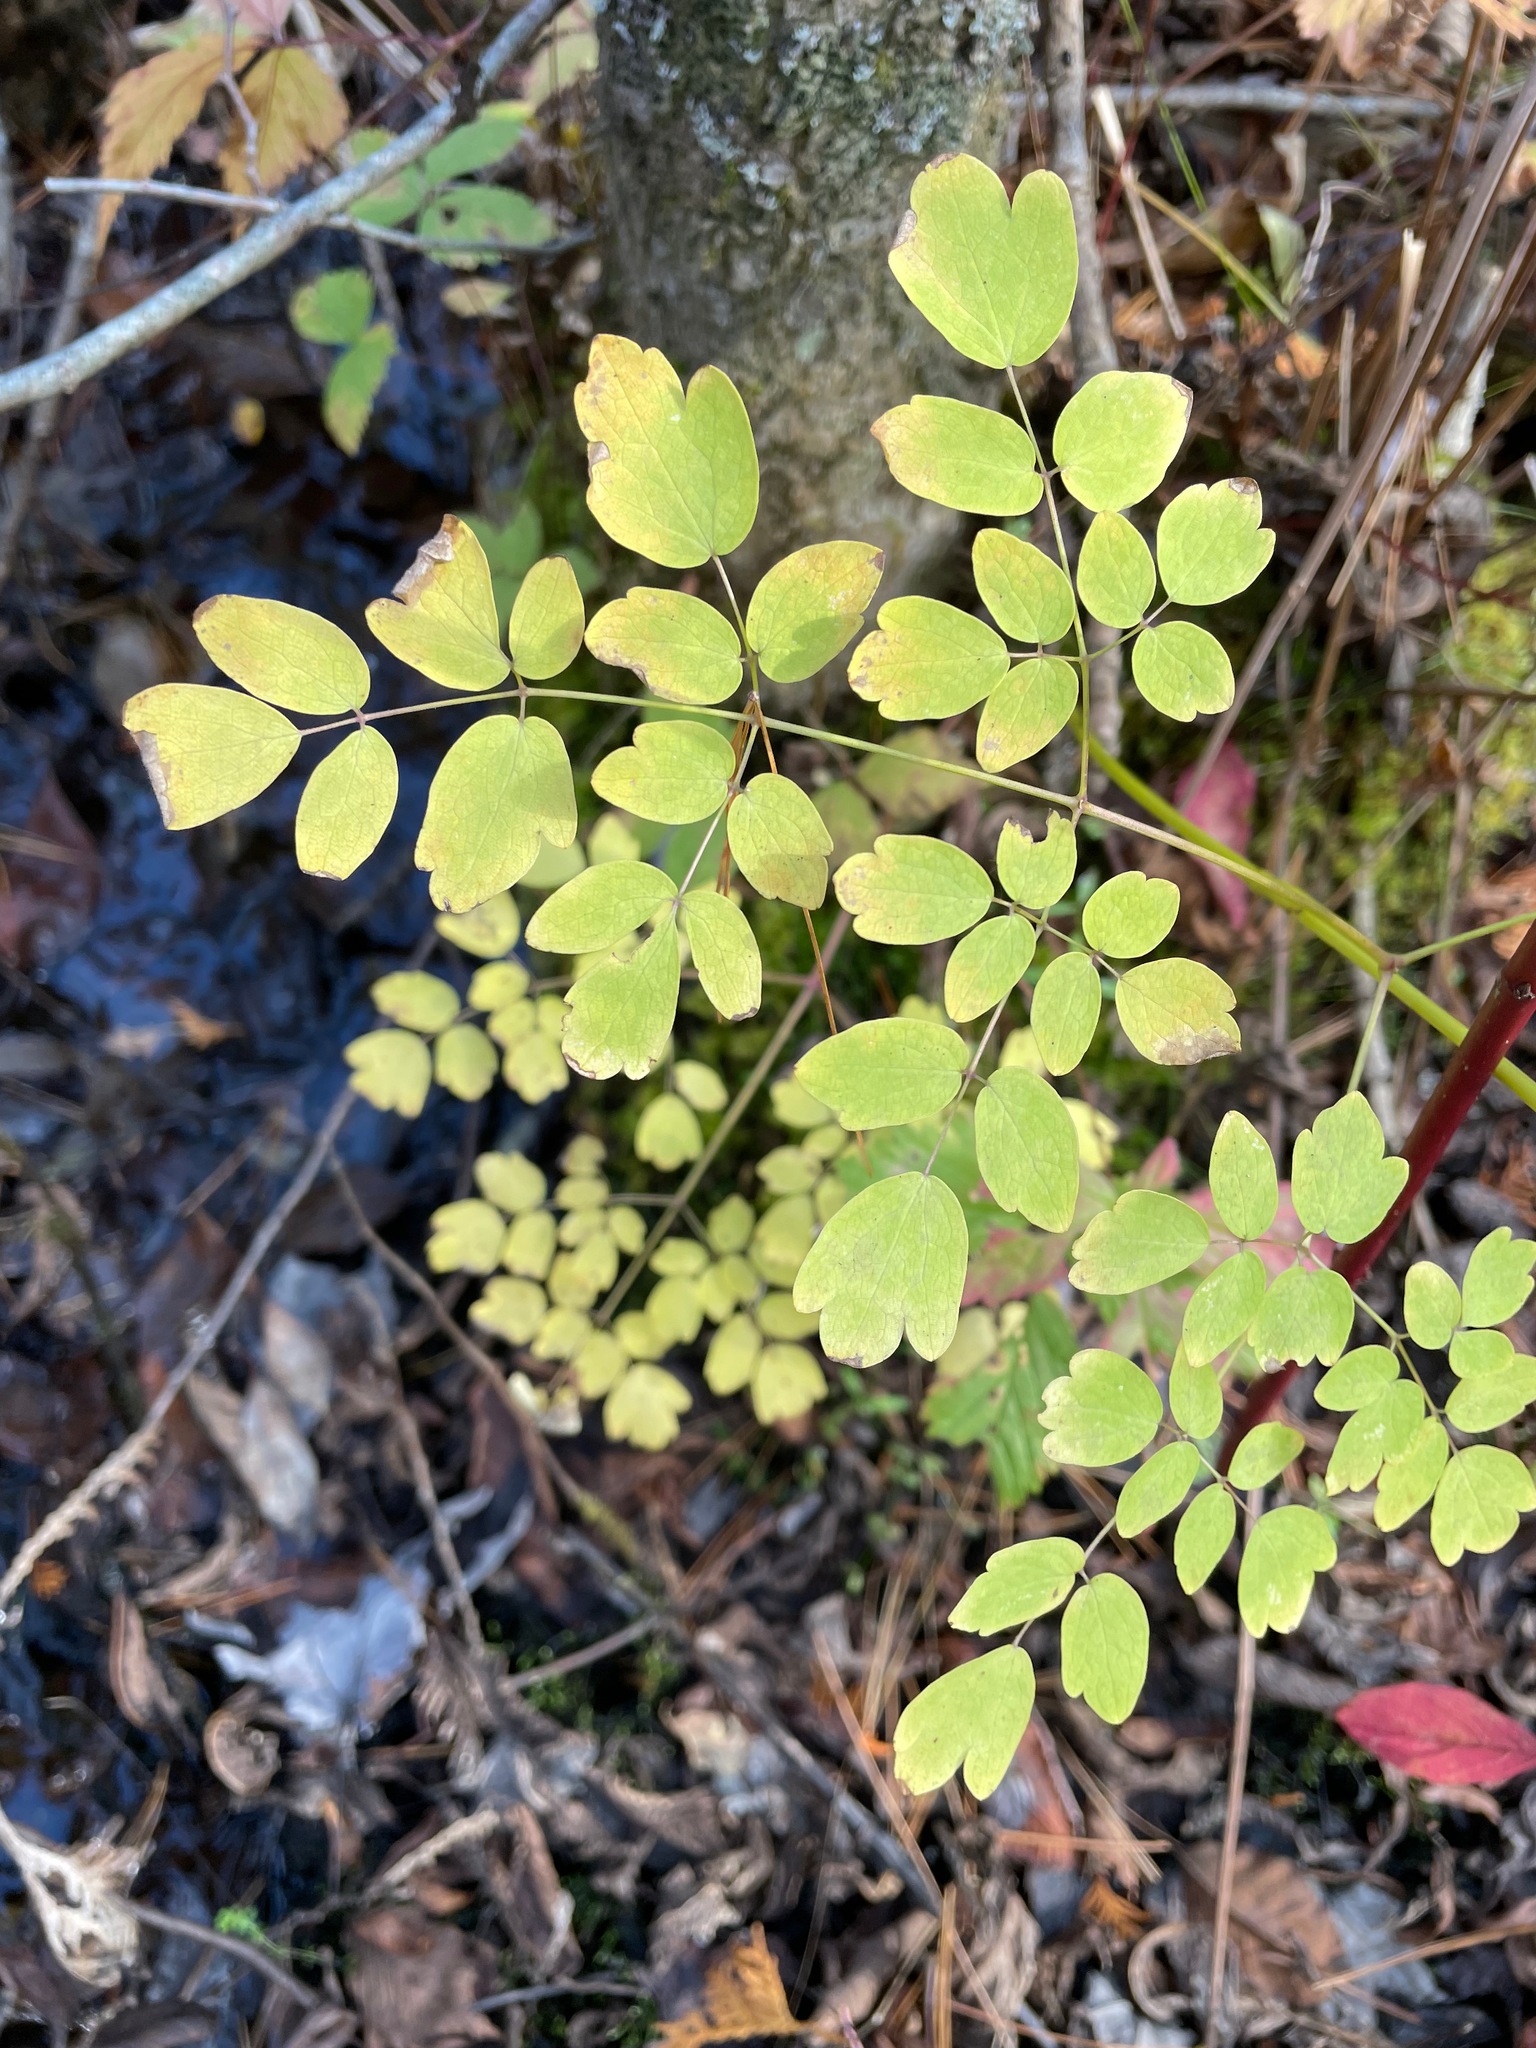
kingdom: Plantae
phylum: Tracheophyta
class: Magnoliopsida
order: Ranunculales
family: Ranunculaceae
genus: Thalictrum
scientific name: Thalictrum pubescens
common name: King-of-the-meadow
